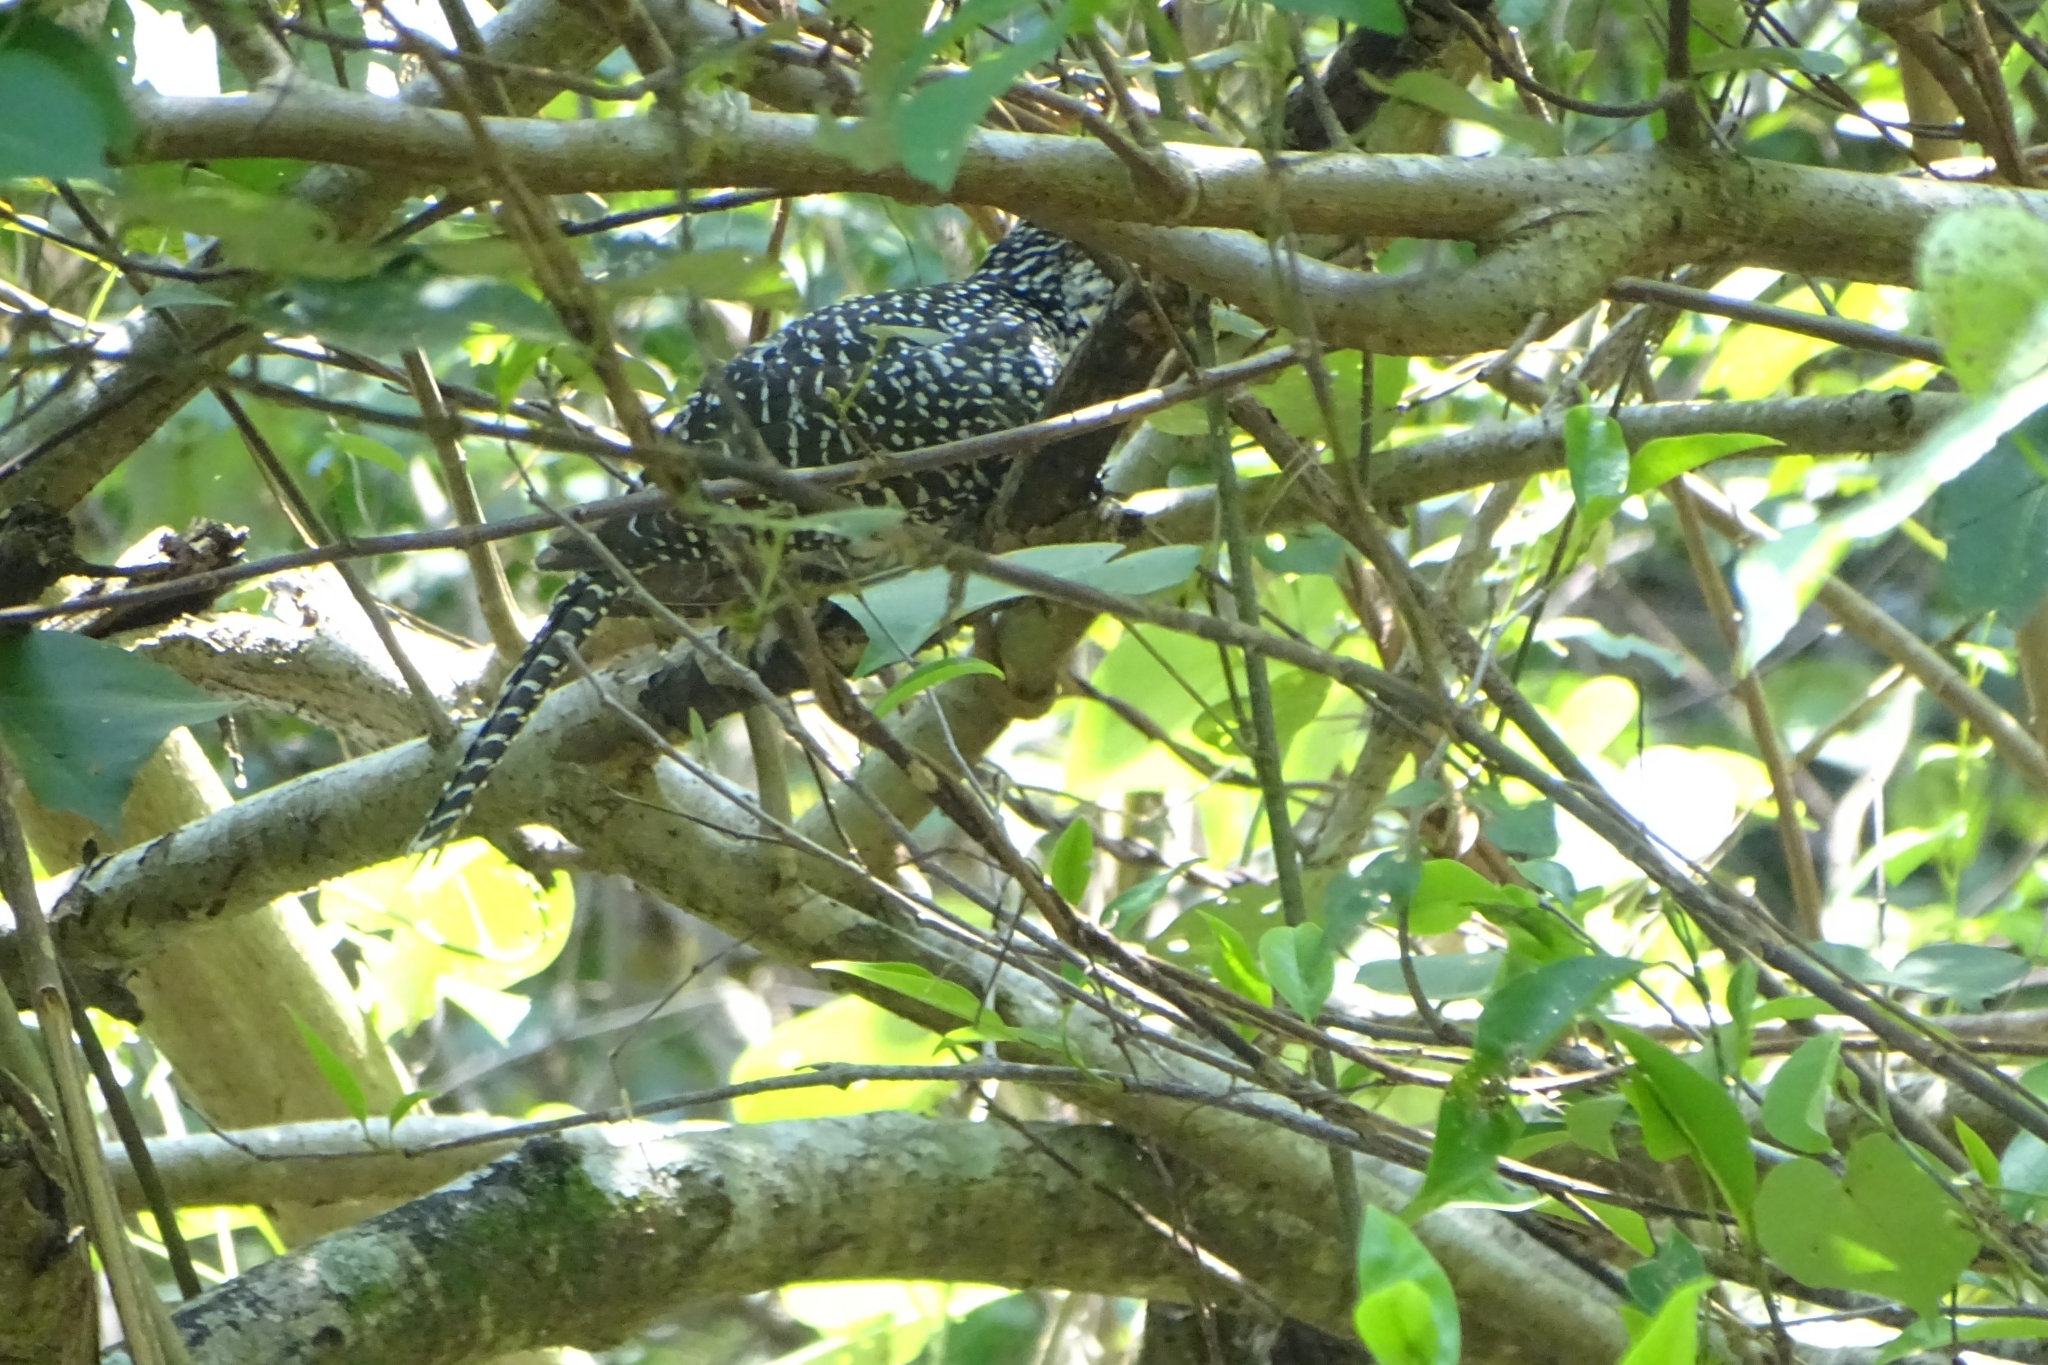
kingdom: Animalia
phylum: Chordata
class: Aves
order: Cuculiformes
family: Cuculidae
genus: Eudynamys
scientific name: Eudynamys scolopaceus
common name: Asian koel
